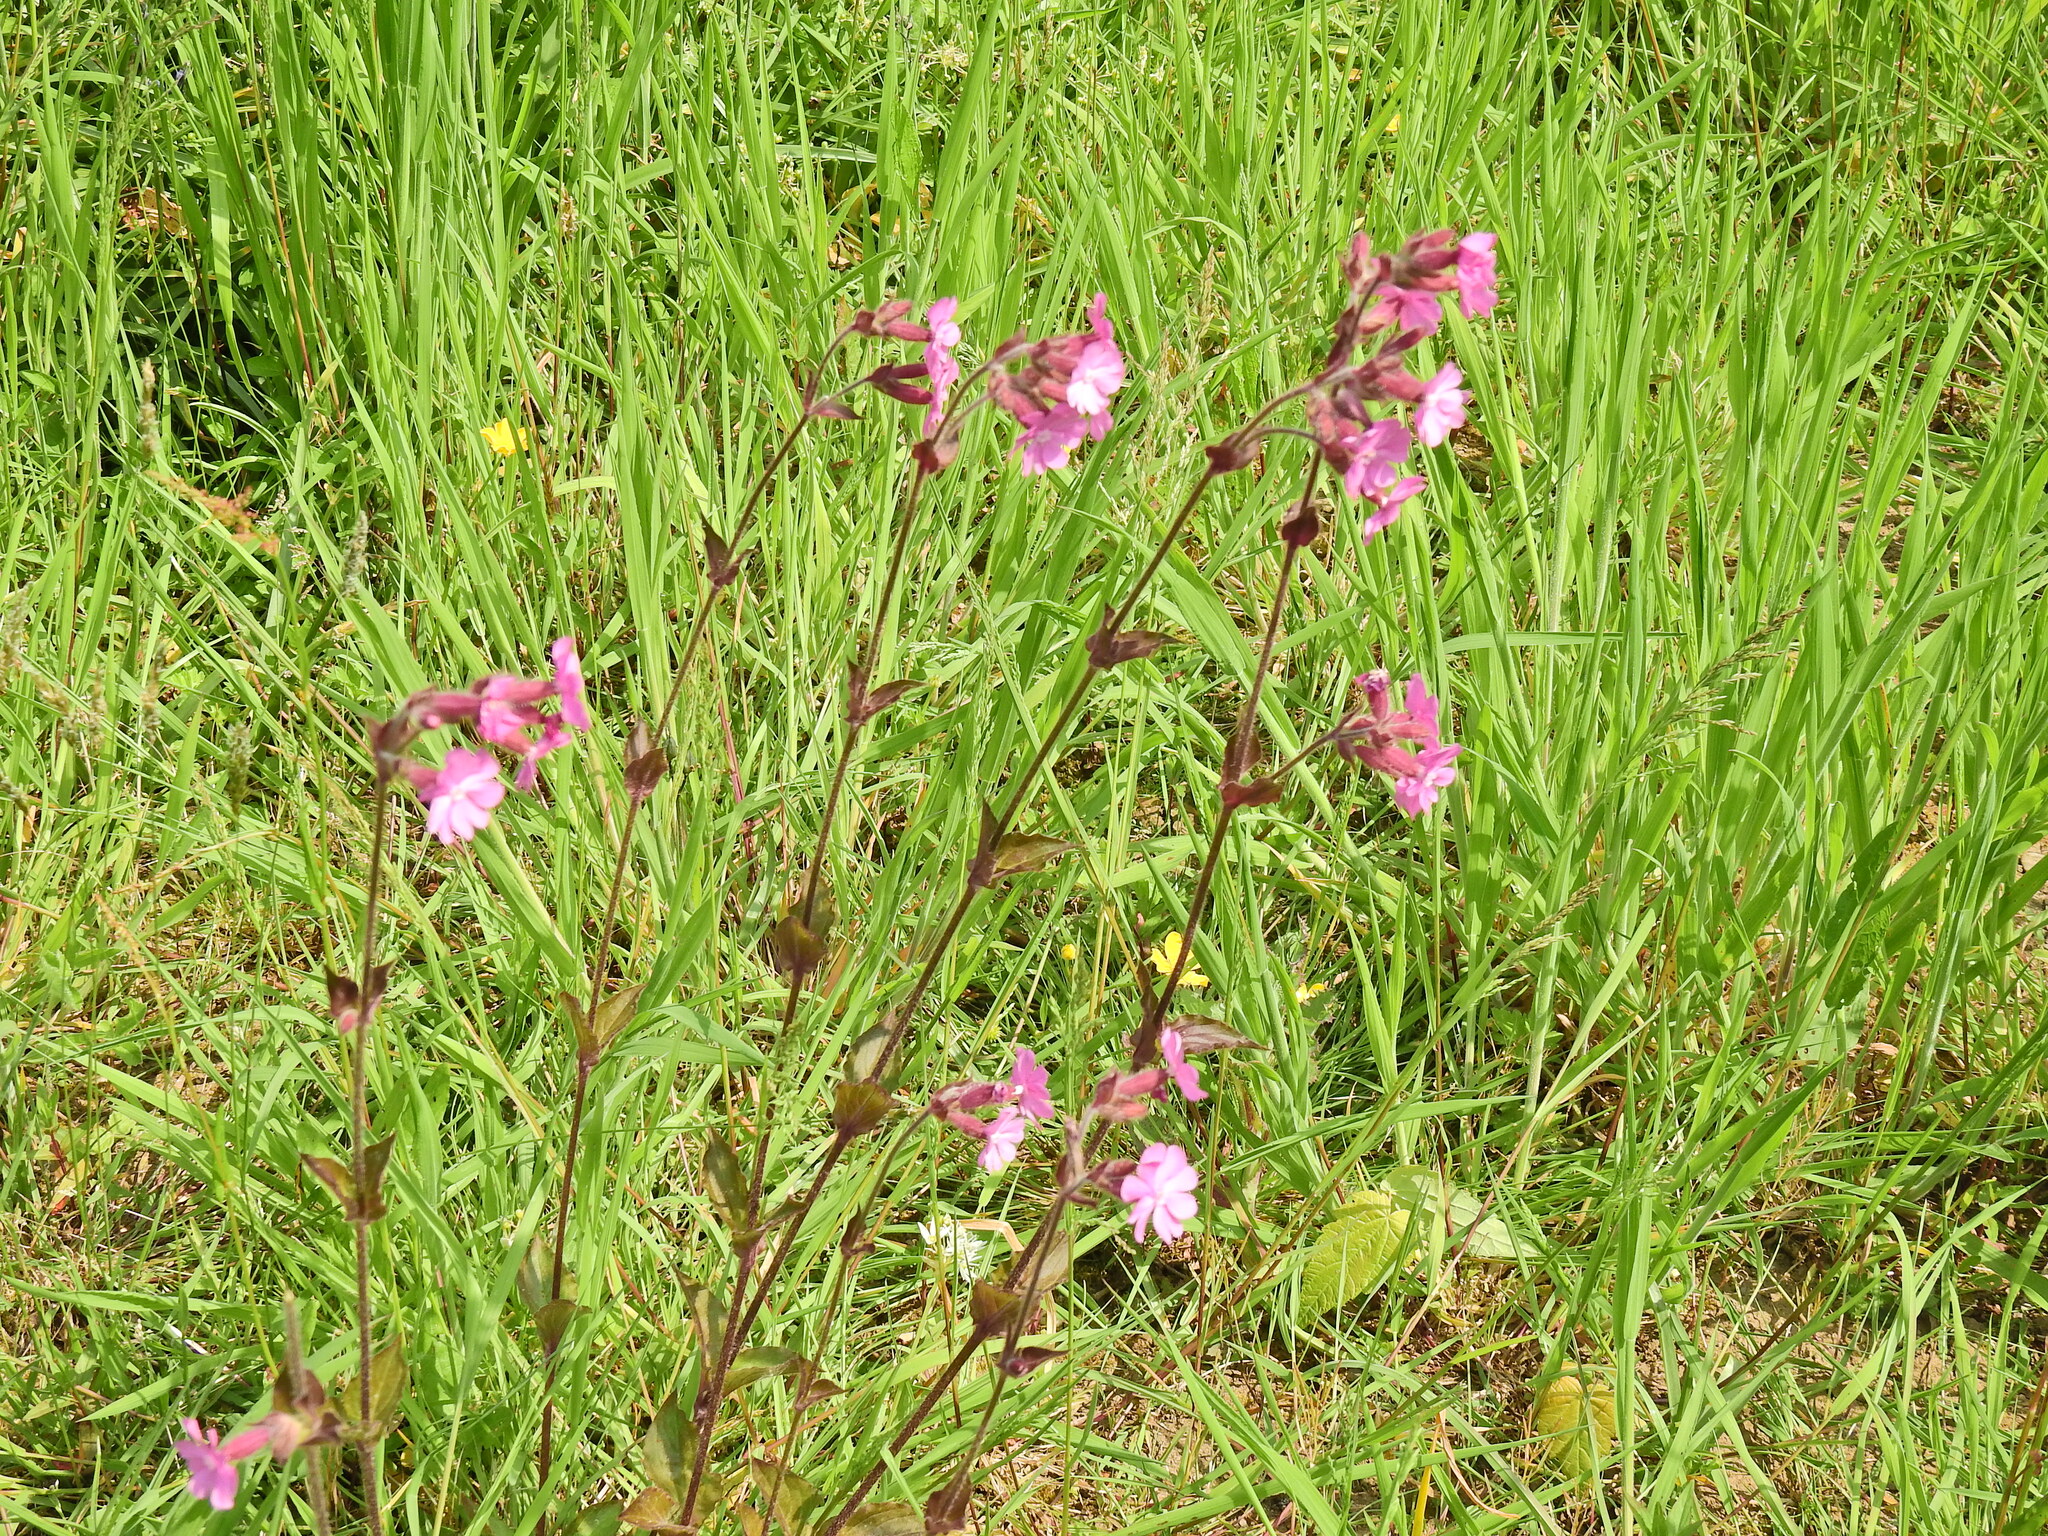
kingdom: Plantae
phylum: Tracheophyta
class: Magnoliopsida
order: Caryophyllales
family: Caryophyllaceae
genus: Silene
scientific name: Silene dioica
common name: Red campion
